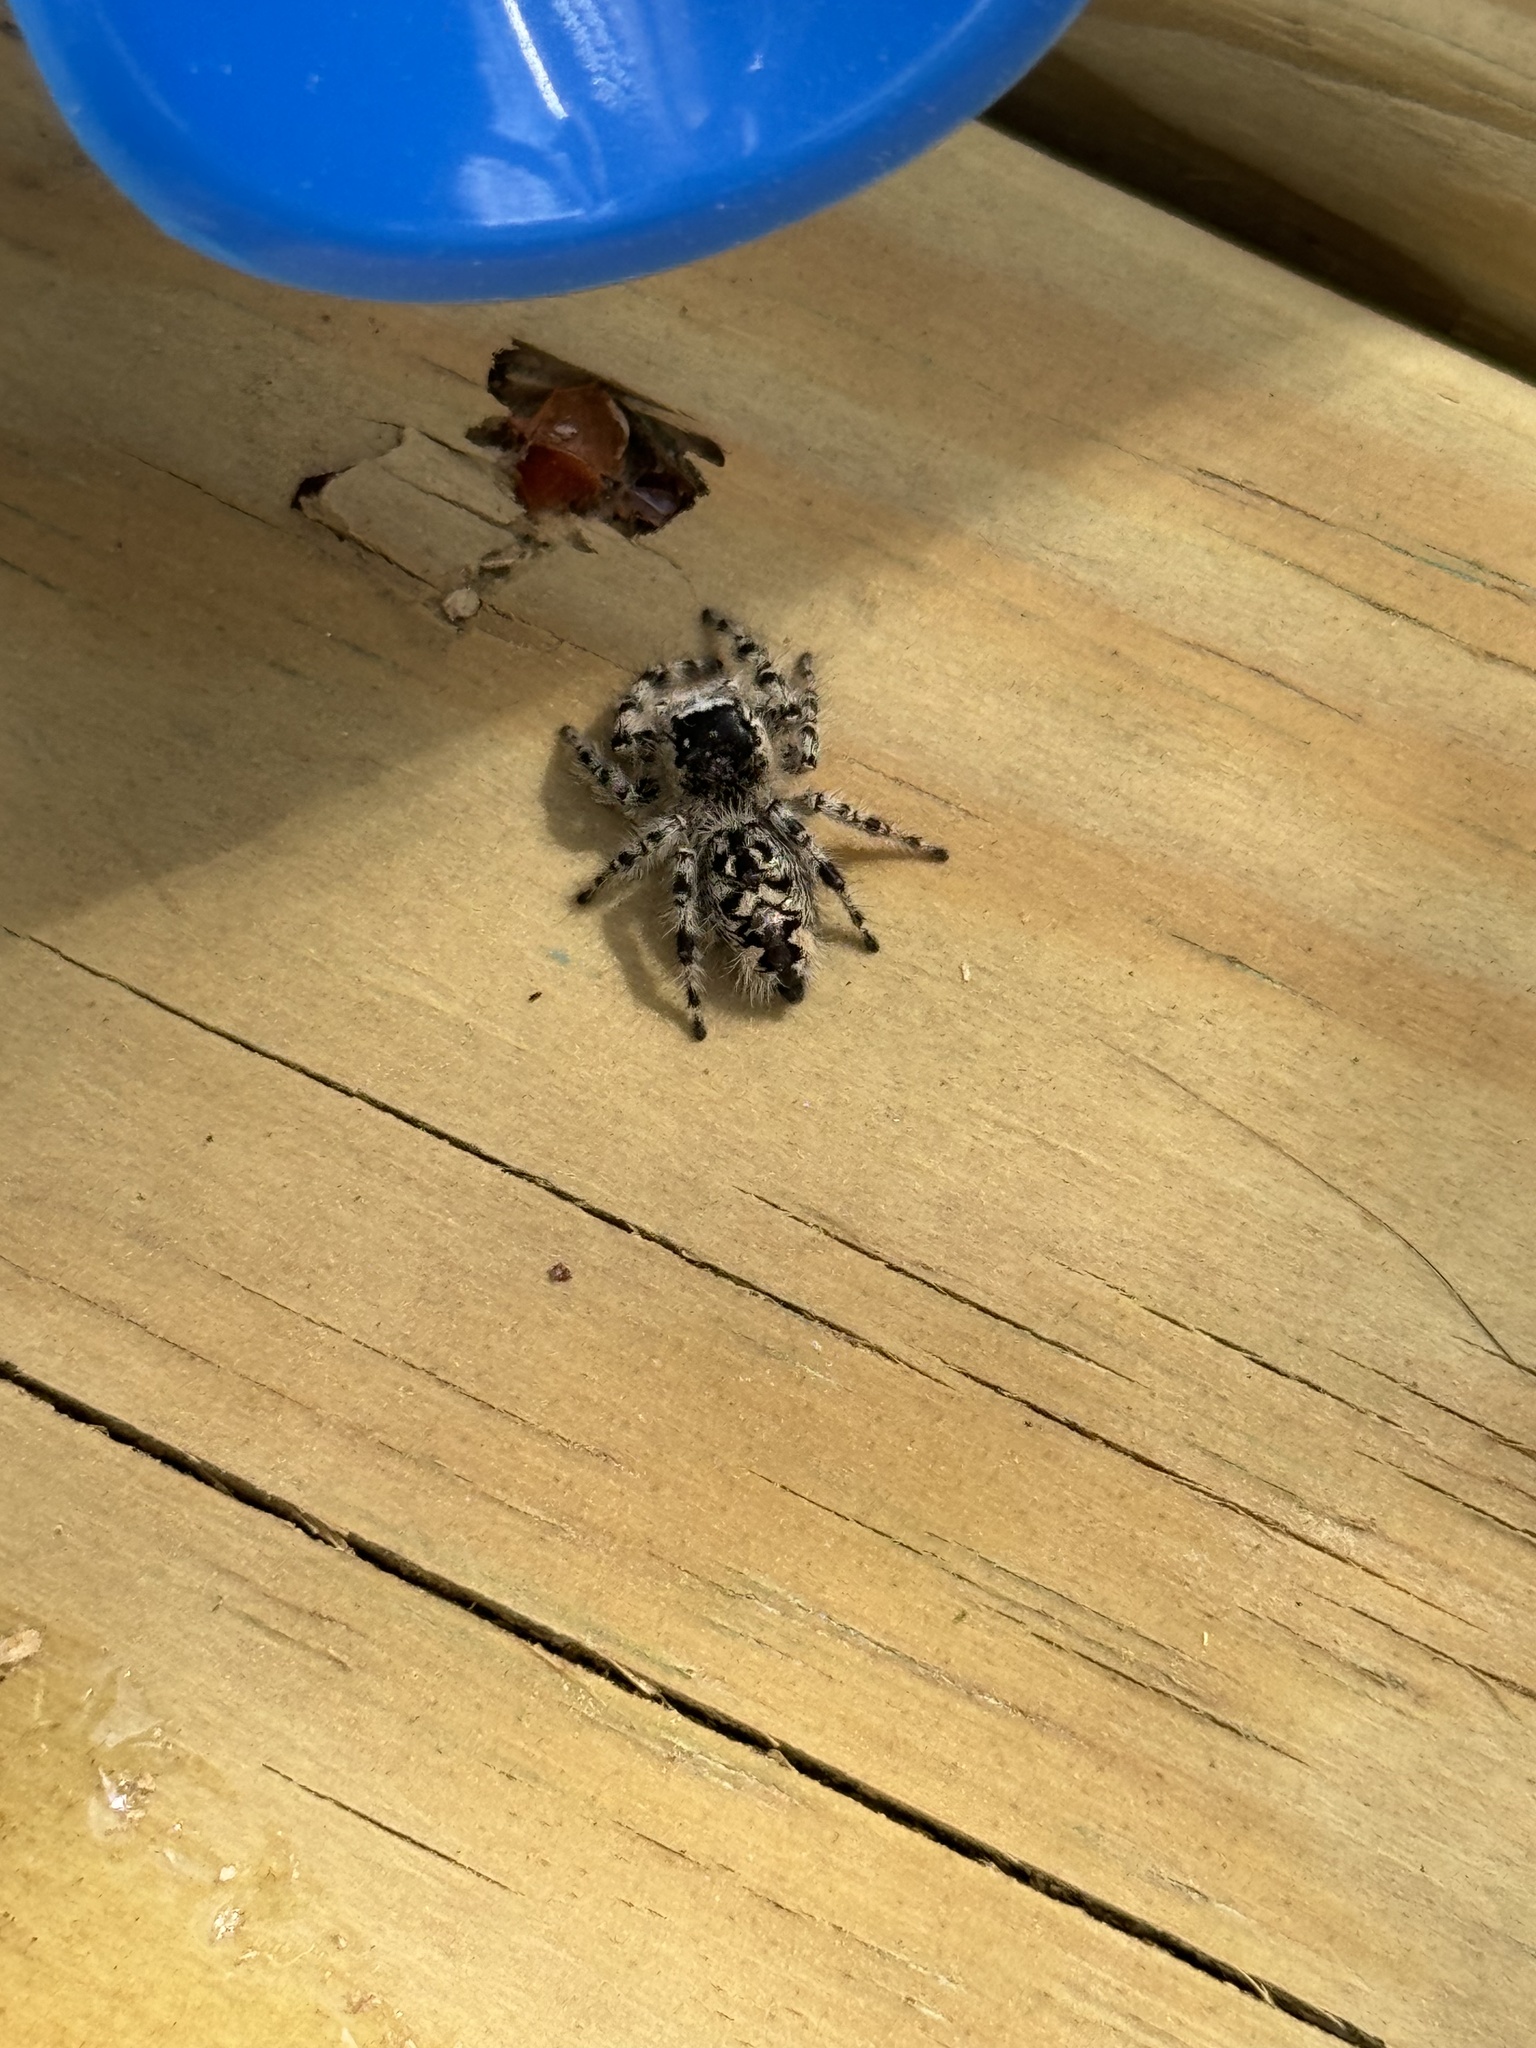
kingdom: Animalia
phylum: Arthropoda
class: Arachnida
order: Araneae
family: Salticidae
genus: Phidippus
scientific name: Phidippus otiosus
